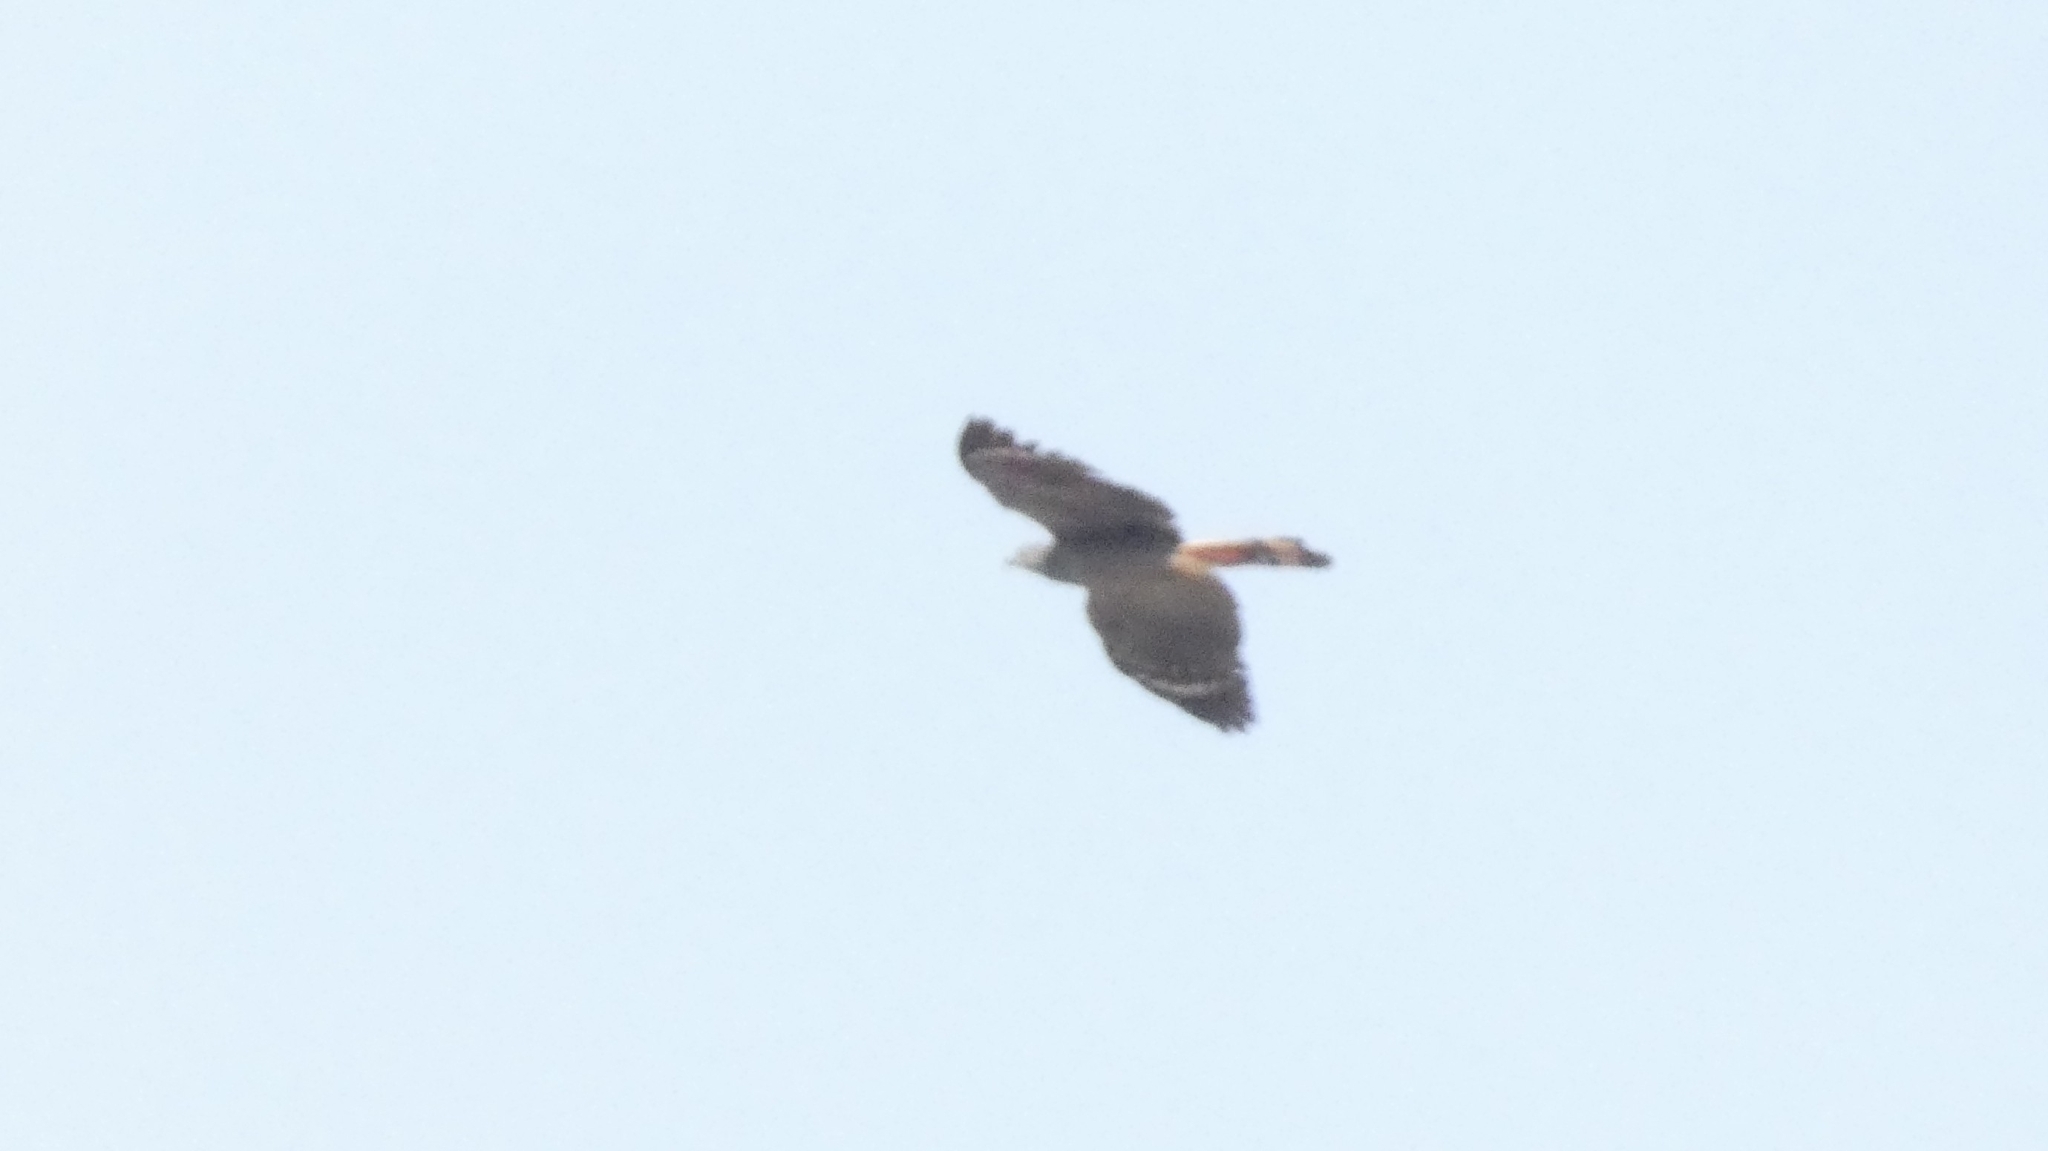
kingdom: Animalia
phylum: Chordata
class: Aves
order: Accipitriformes
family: Accipitridae
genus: Geranospiza
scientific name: Geranospiza caerulescens
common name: Crane hawk
